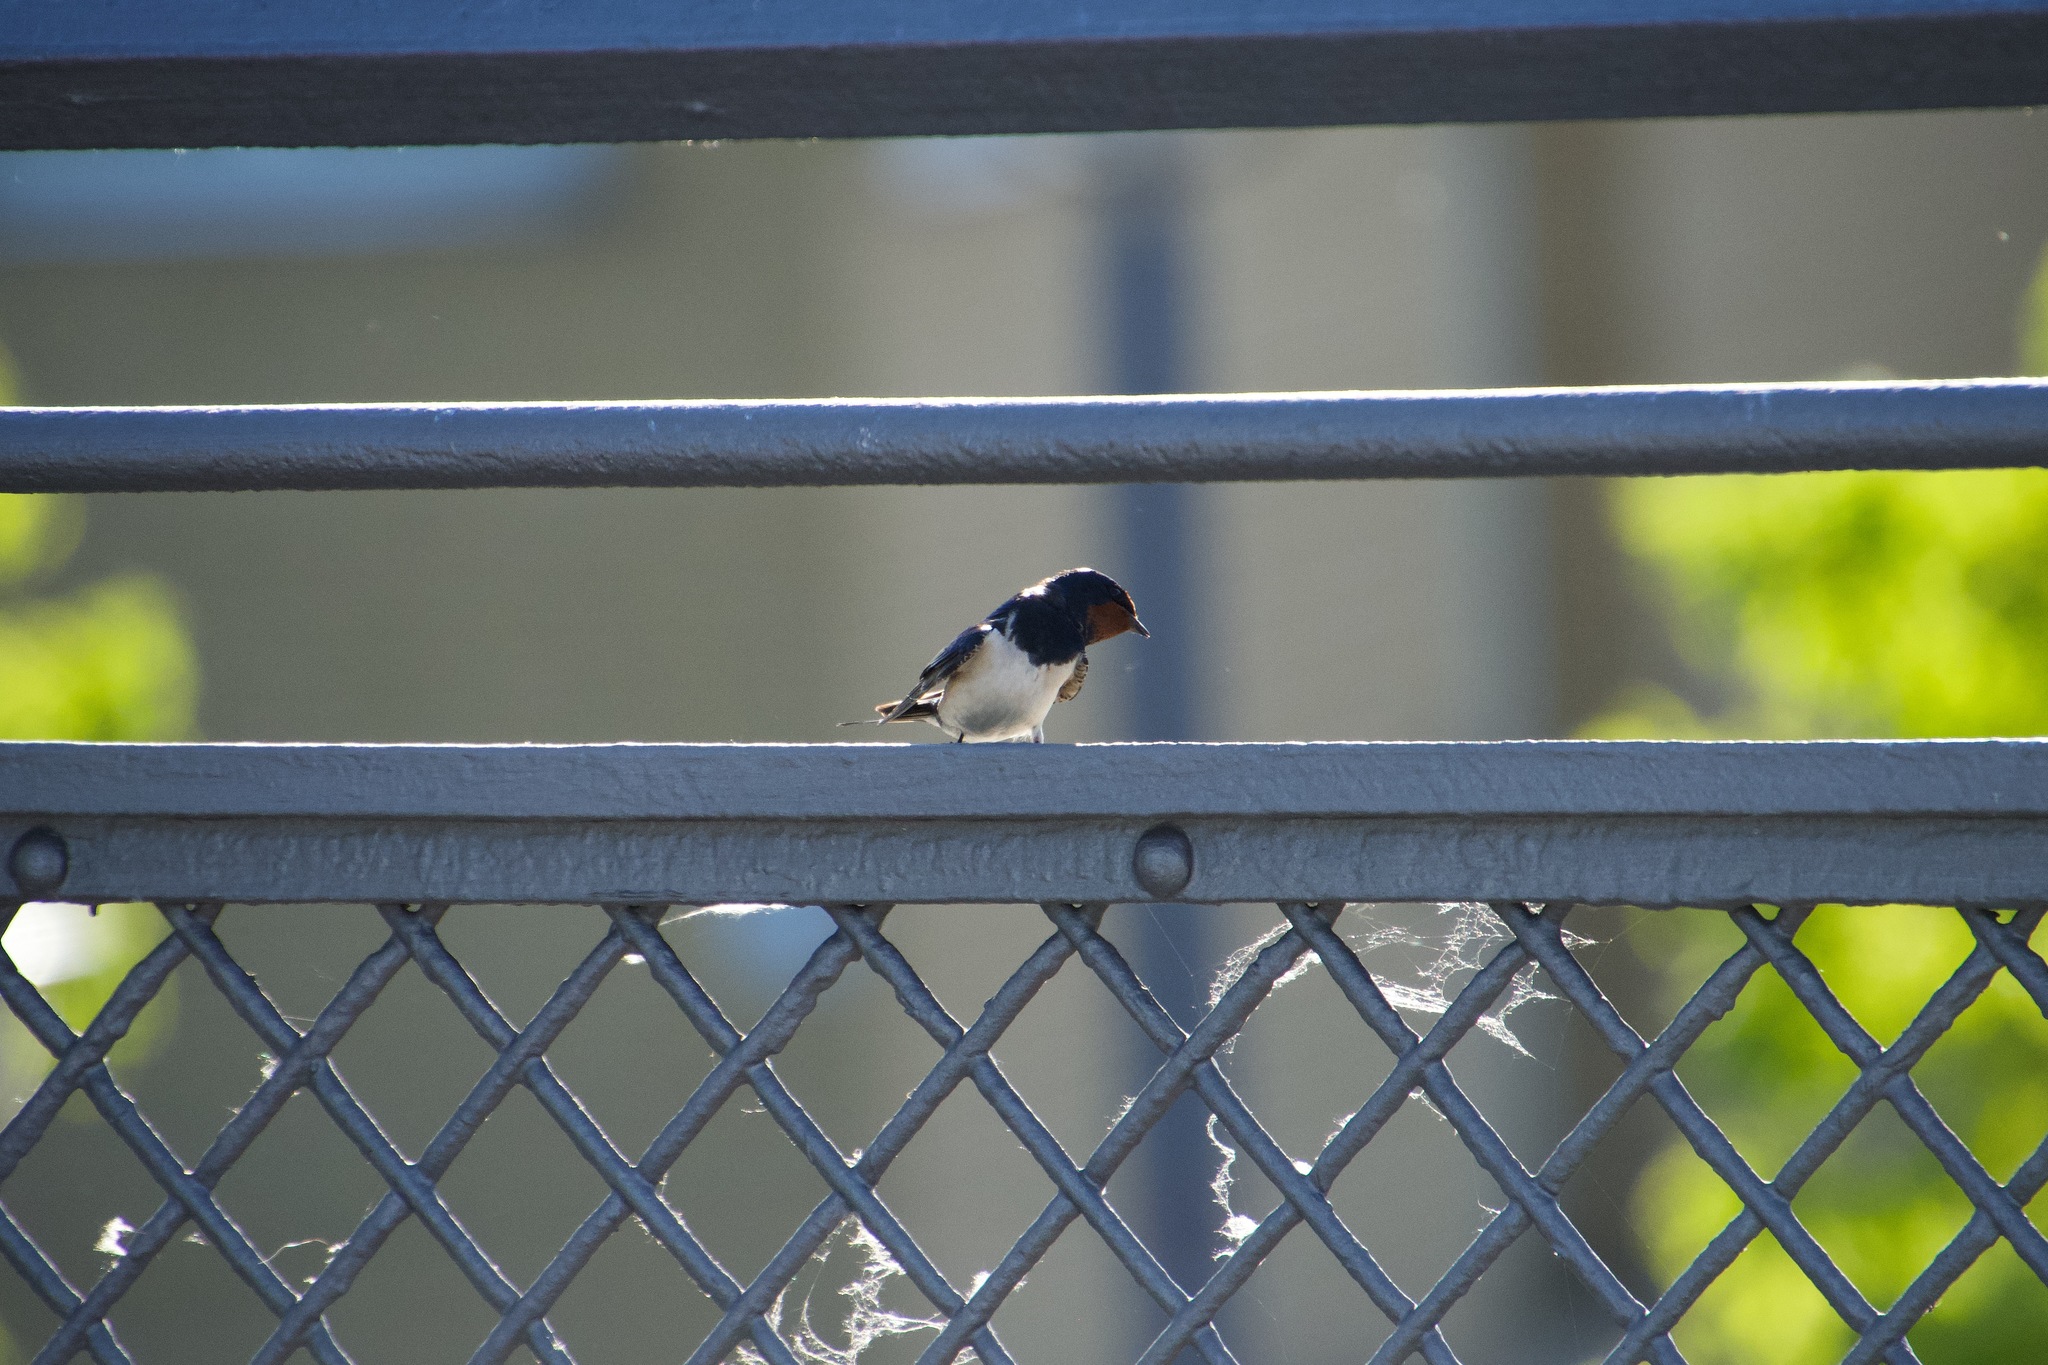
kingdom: Animalia
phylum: Chordata
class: Aves
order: Passeriformes
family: Hirundinidae
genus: Hirundo
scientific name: Hirundo rustica
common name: Barn swallow
